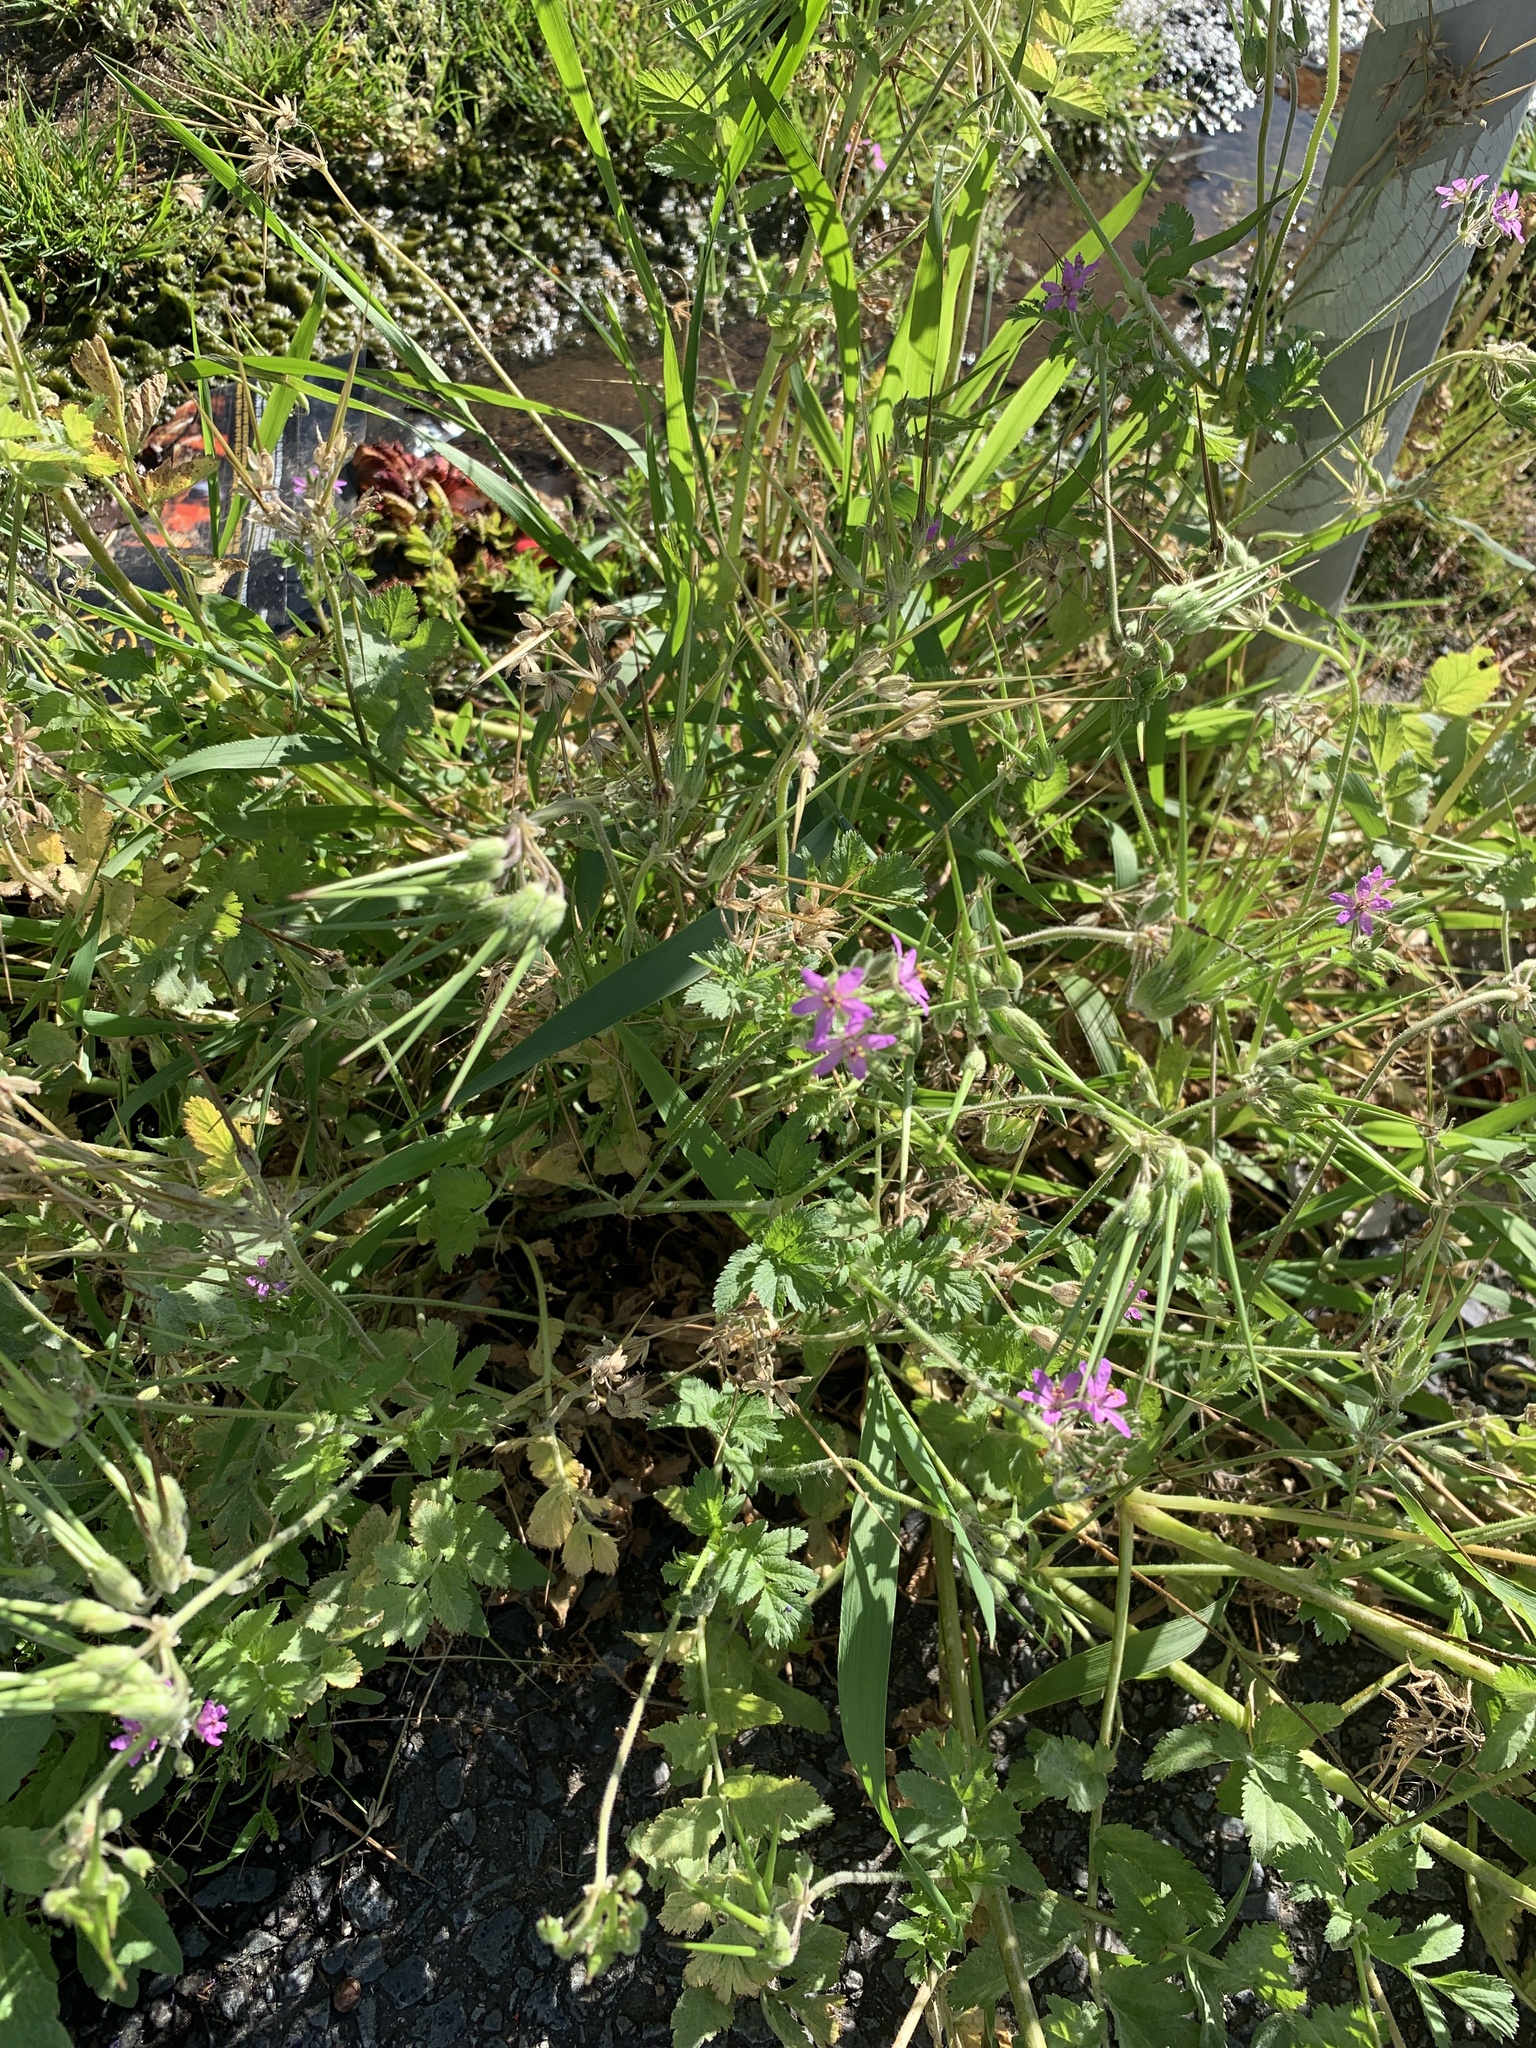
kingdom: Plantae
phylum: Tracheophyta
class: Magnoliopsida
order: Geraniales
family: Geraniaceae
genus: Erodium
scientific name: Erodium moschatum
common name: Musk stork's-bill
